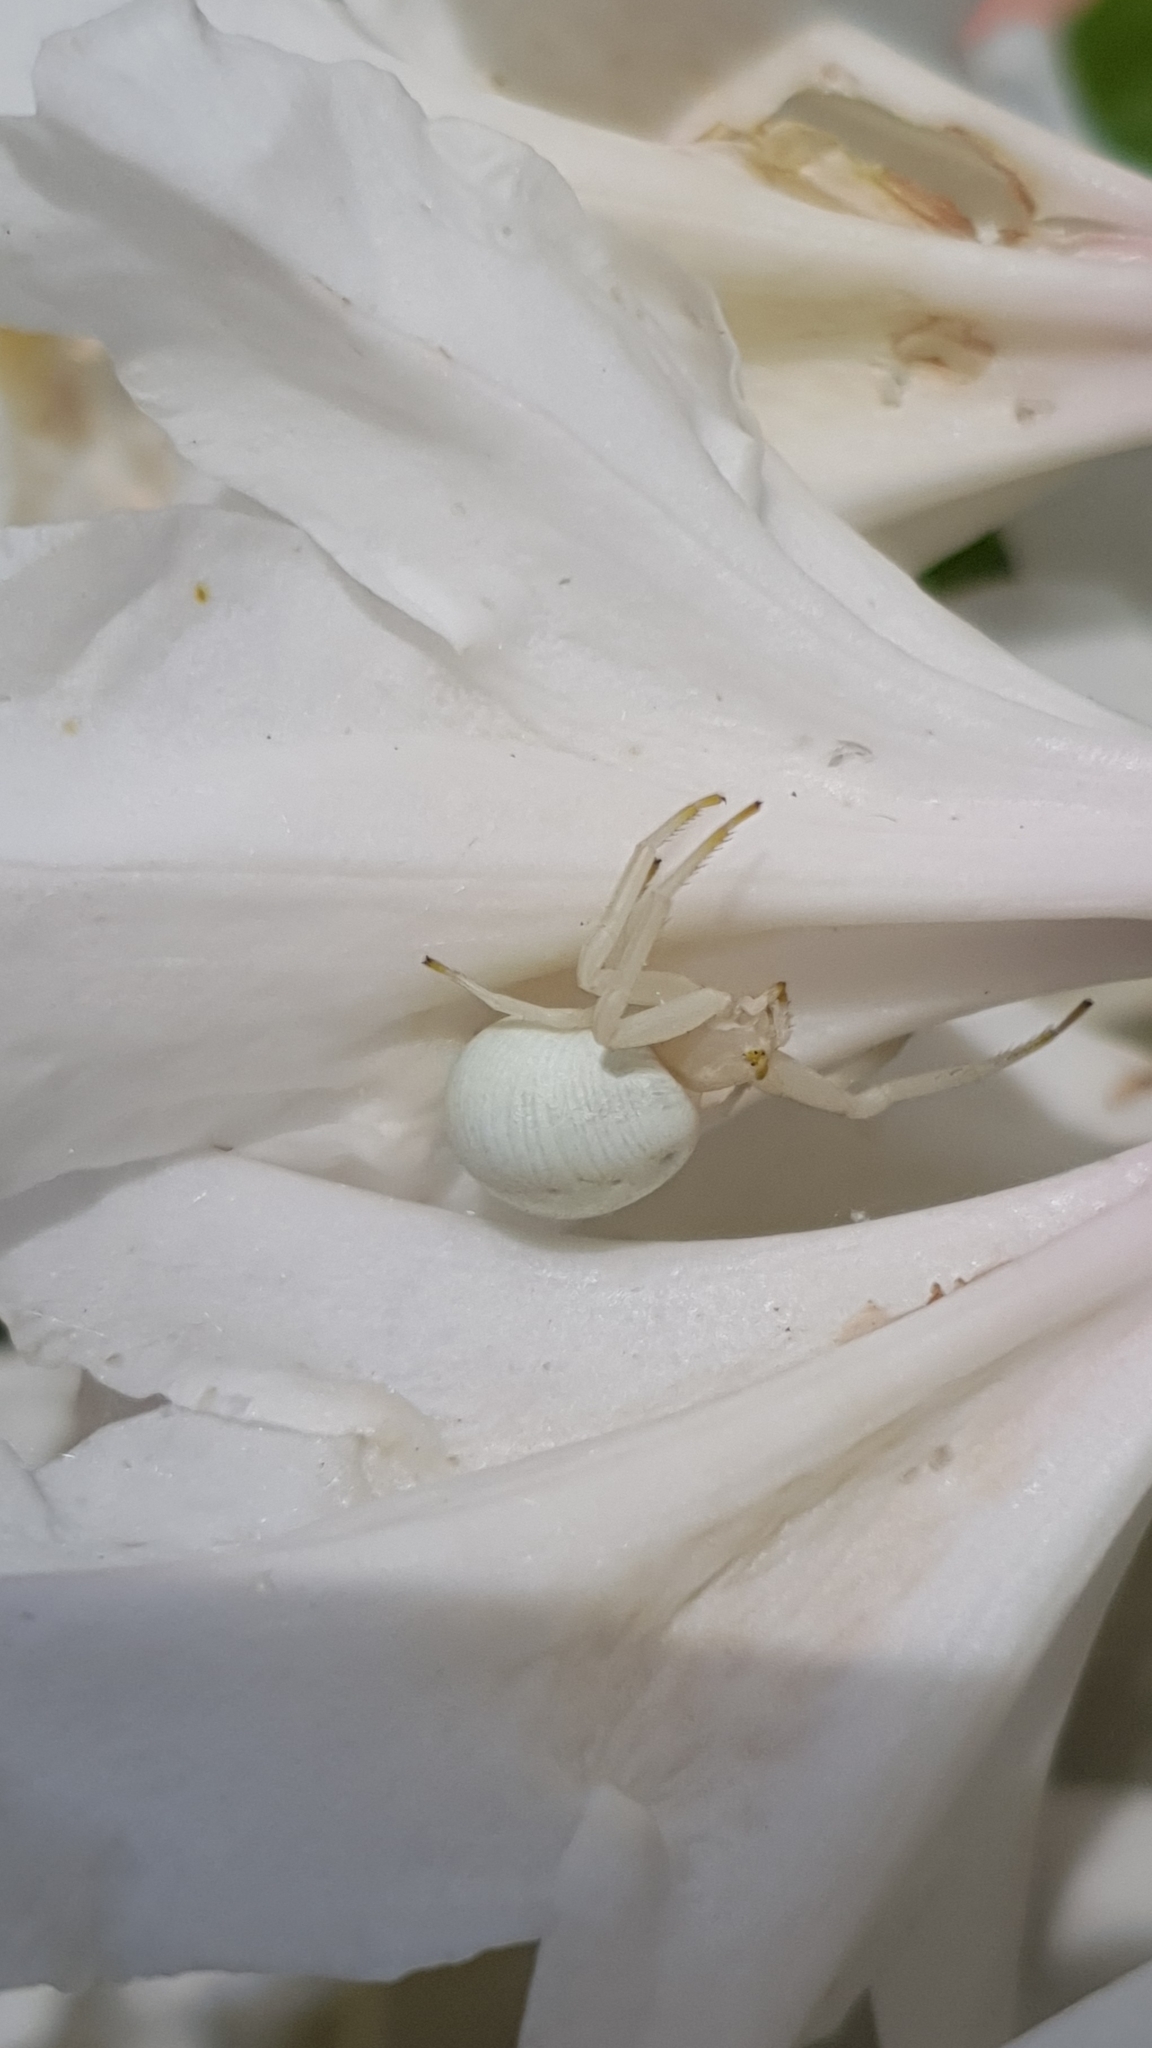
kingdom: Animalia
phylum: Arthropoda
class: Arachnida
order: Araneae
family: Thomisidae
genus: Misumena
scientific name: Misumena vatia
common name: Goldenrod crab spider
